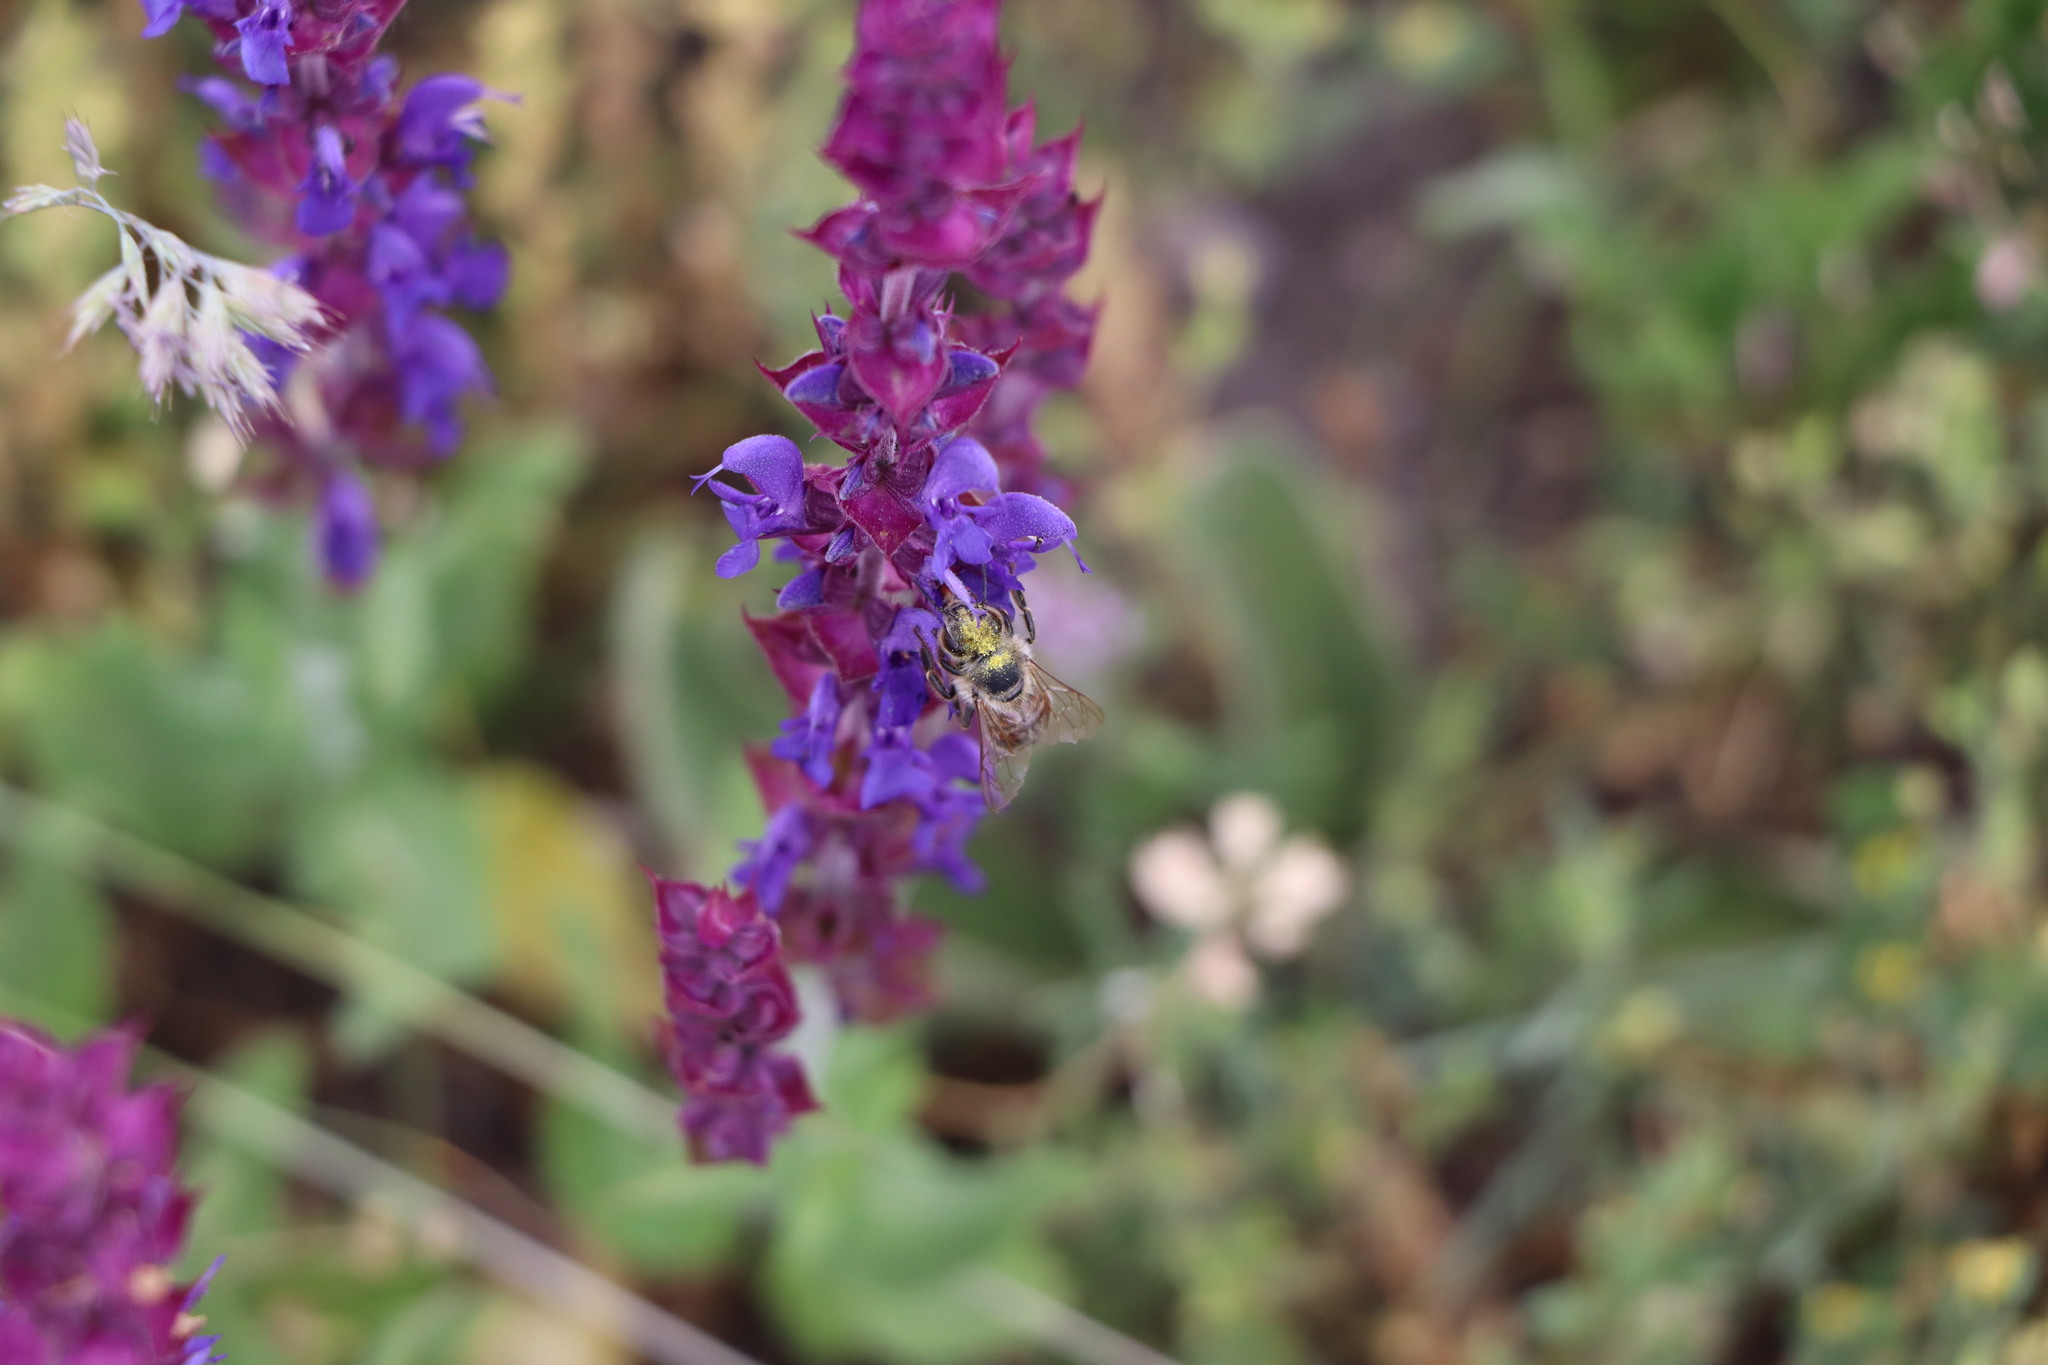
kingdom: Animalia
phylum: Arthropoda
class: Insecta
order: Hymenoptera
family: Apidae
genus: Apis
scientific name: Apis mellifera
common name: Honey bee
